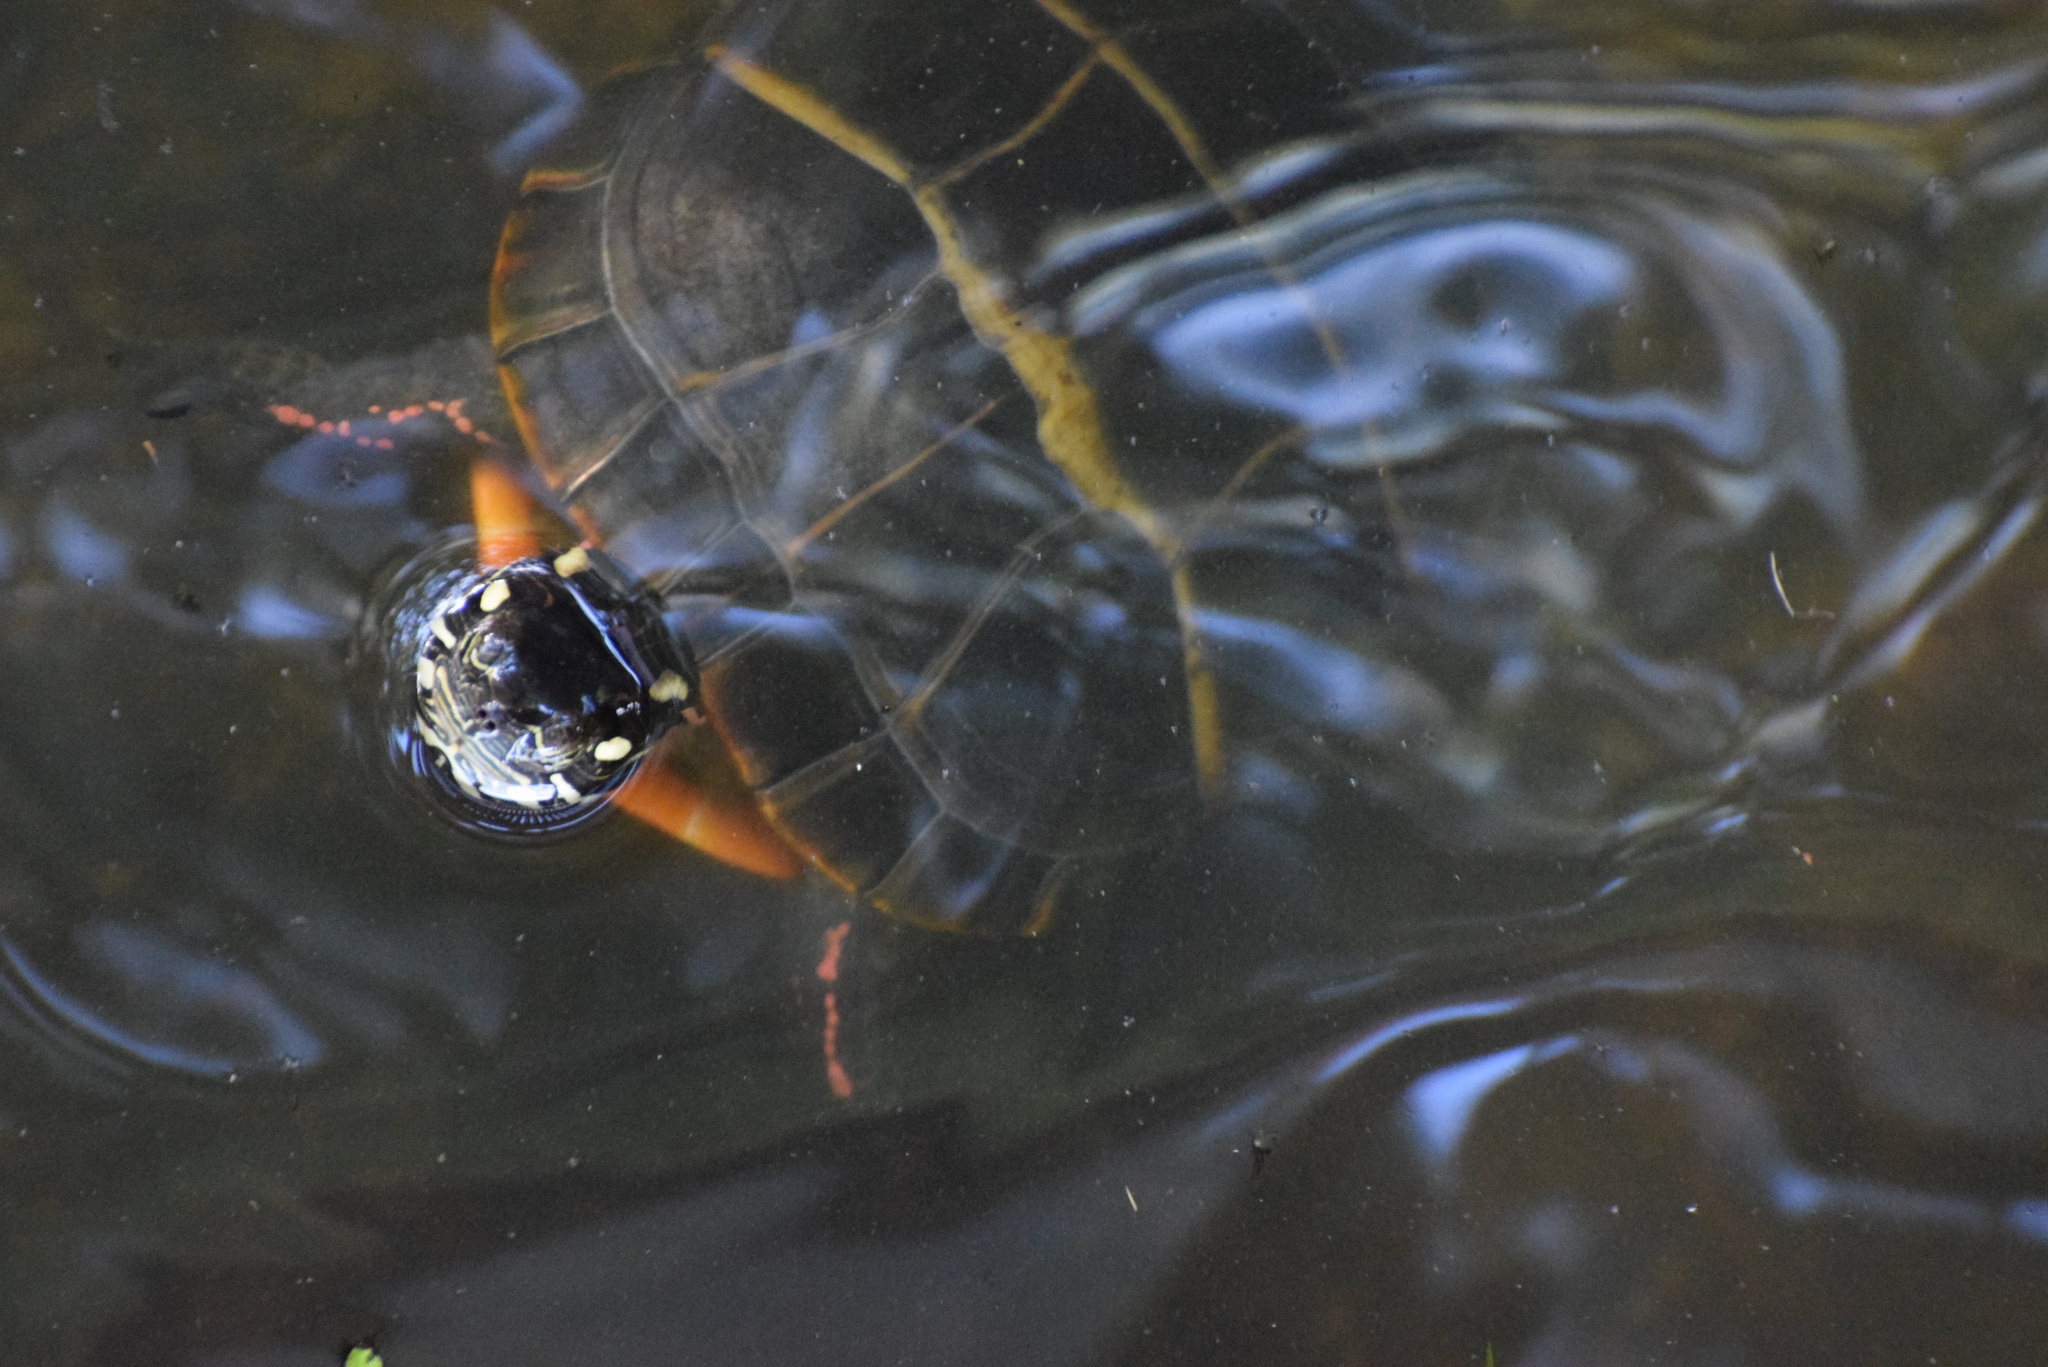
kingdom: Animalia
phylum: Chordata
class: Testudines
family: Emydidae
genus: Chrysemys
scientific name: Chrysemys picta
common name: Painted turtle
